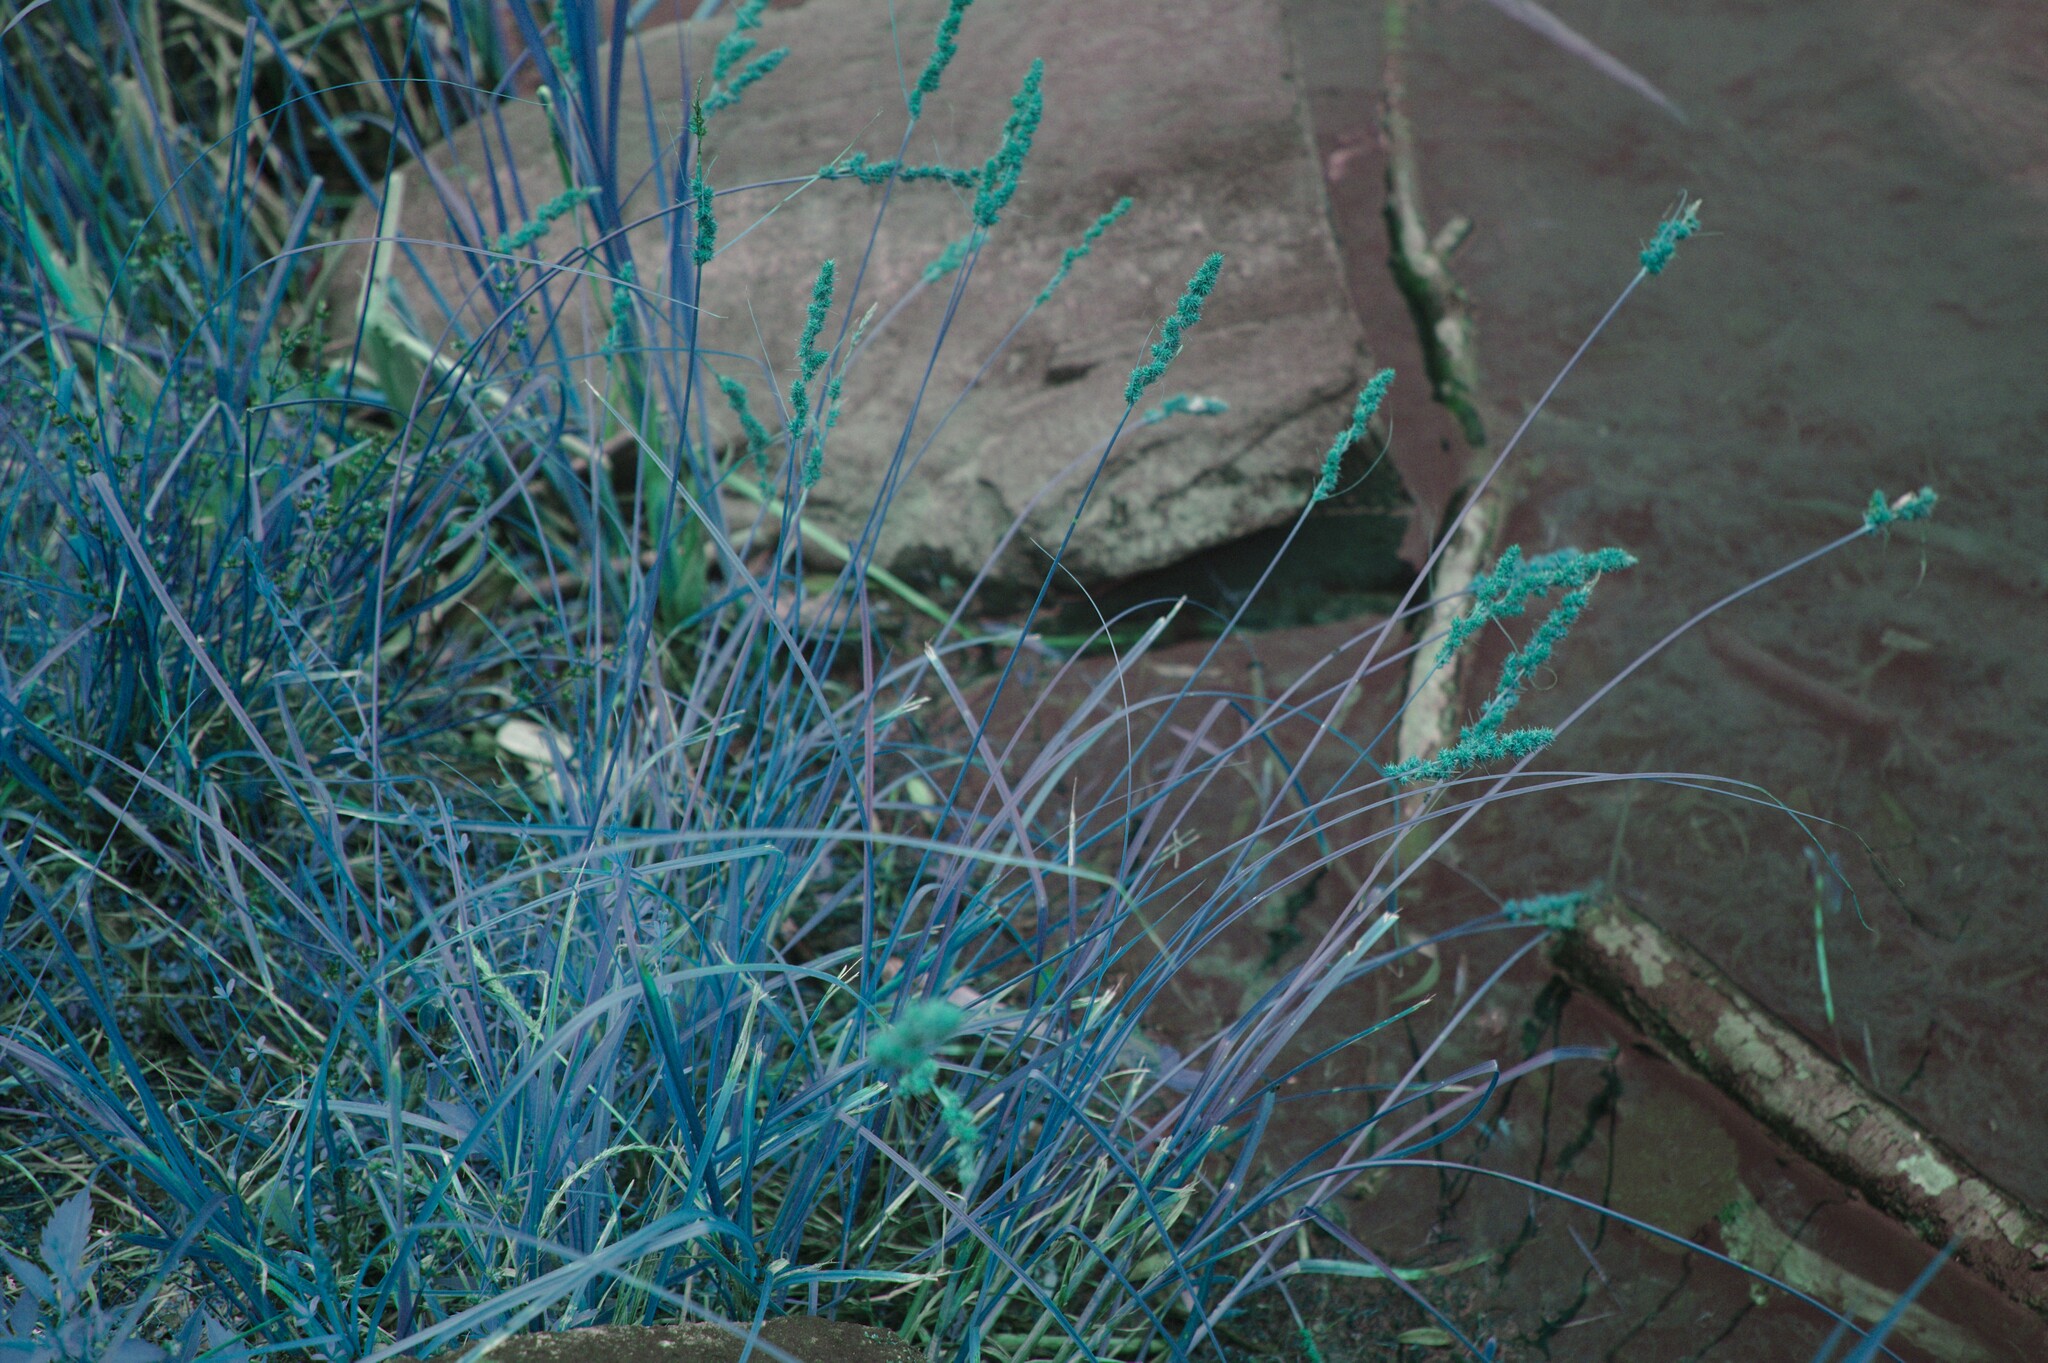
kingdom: Plantae
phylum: Tracheophyta
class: Liliopsida
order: Poales
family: Cyperaceae
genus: Carex
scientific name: Carex vulpinoidea
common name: American fox-sedge
